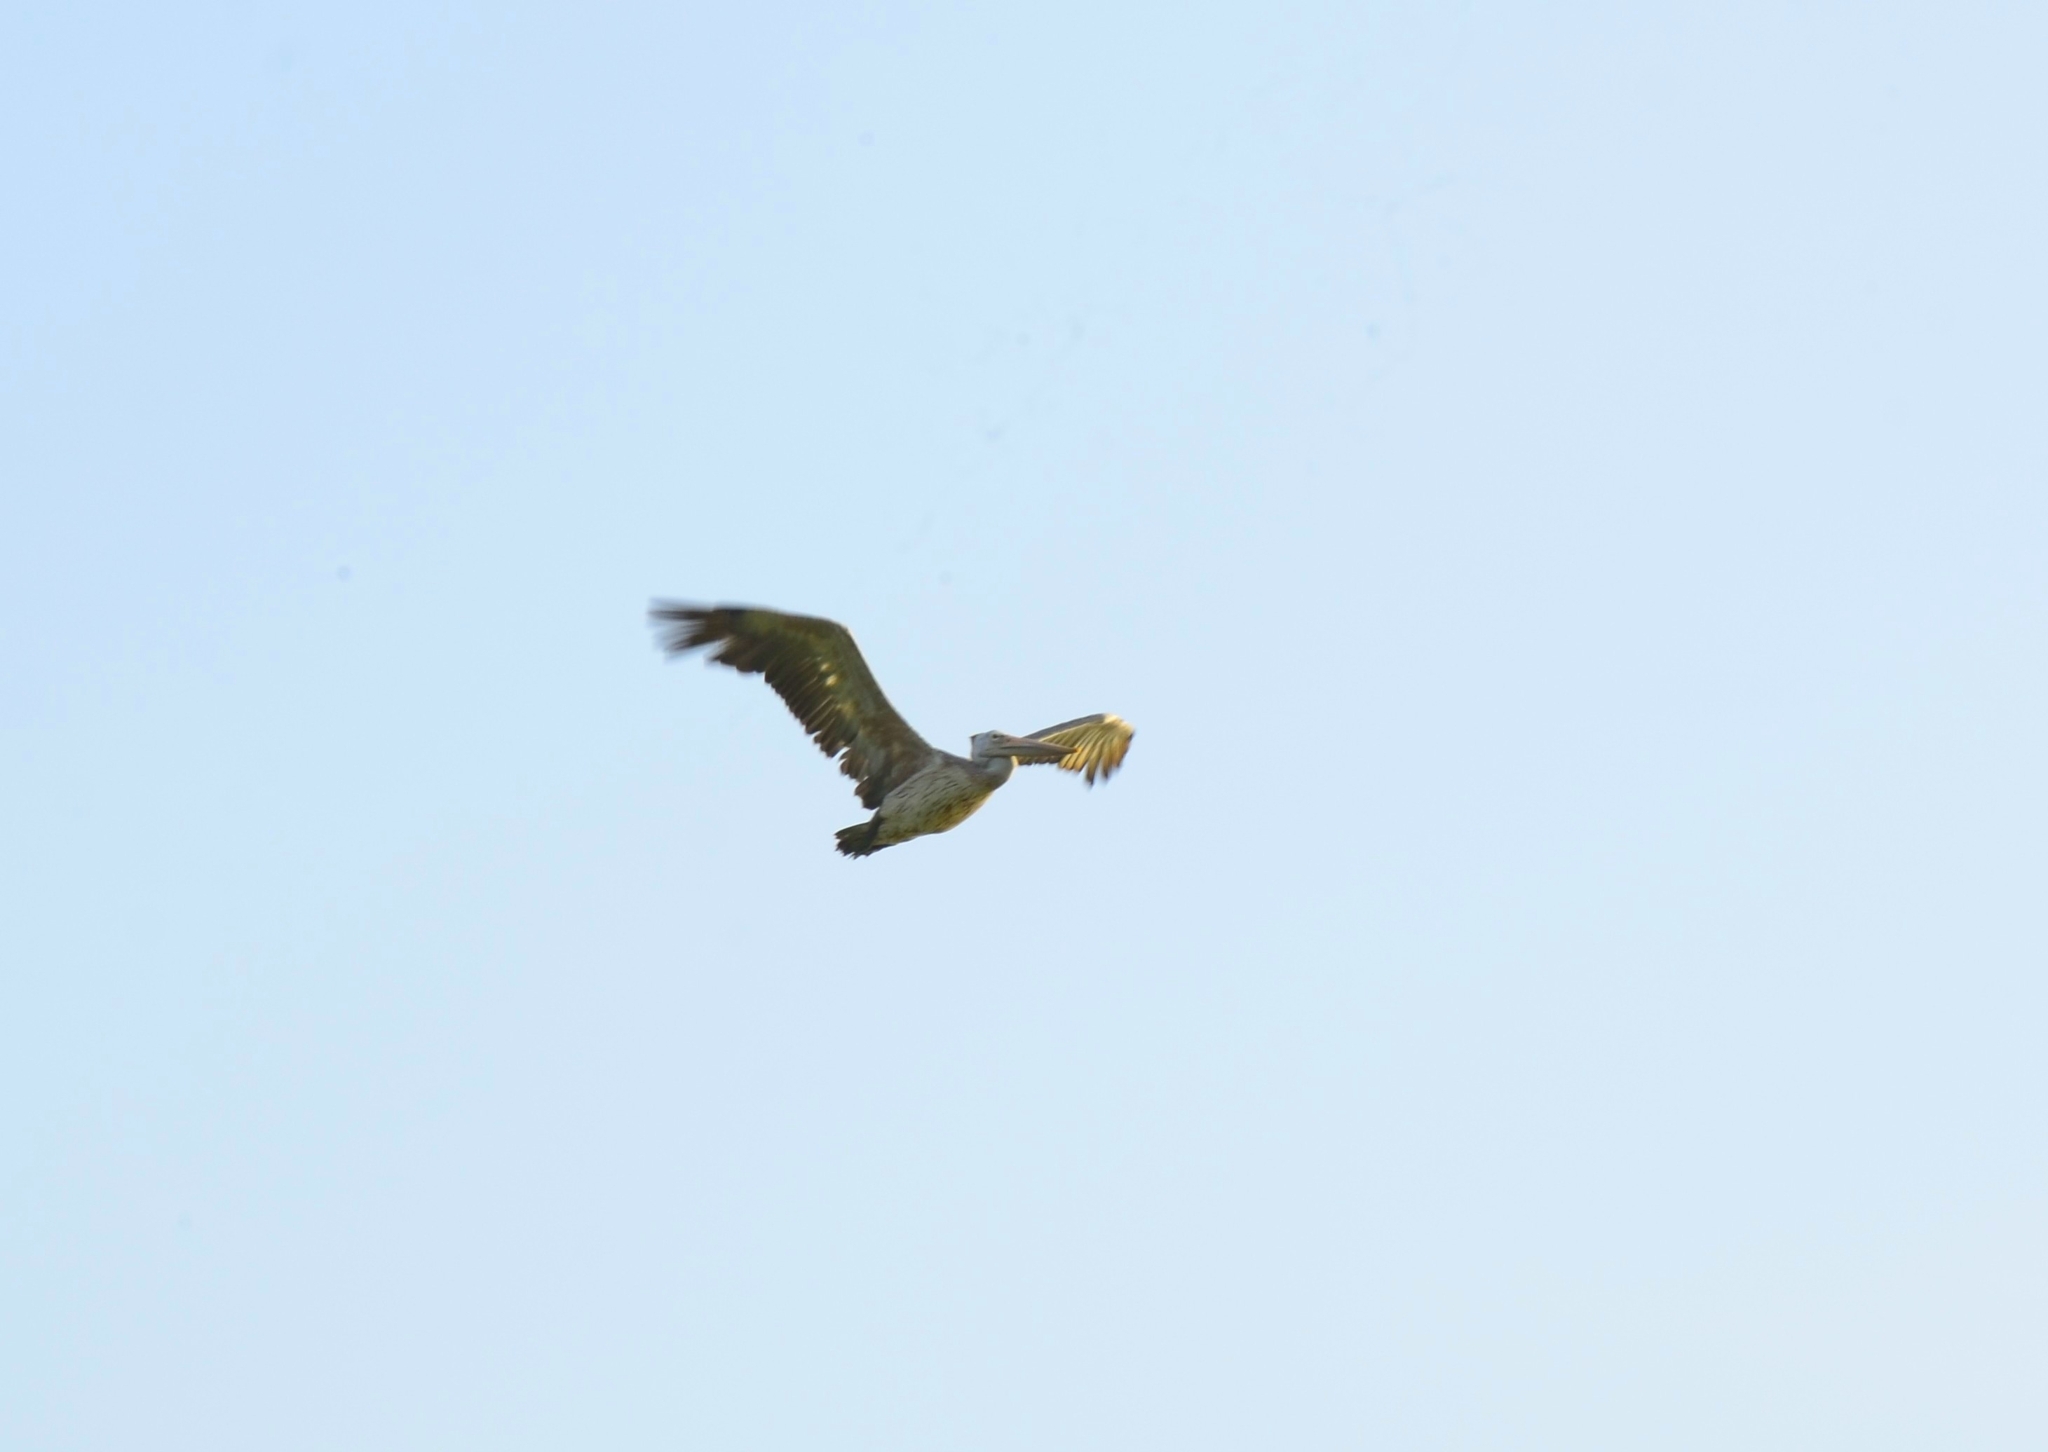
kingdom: Animalia
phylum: Chordata
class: Aves
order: Pelecaniformes
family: Pelecanidae
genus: Pelecanus
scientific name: Pelecanus philippensis
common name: Spot-billed pelican
